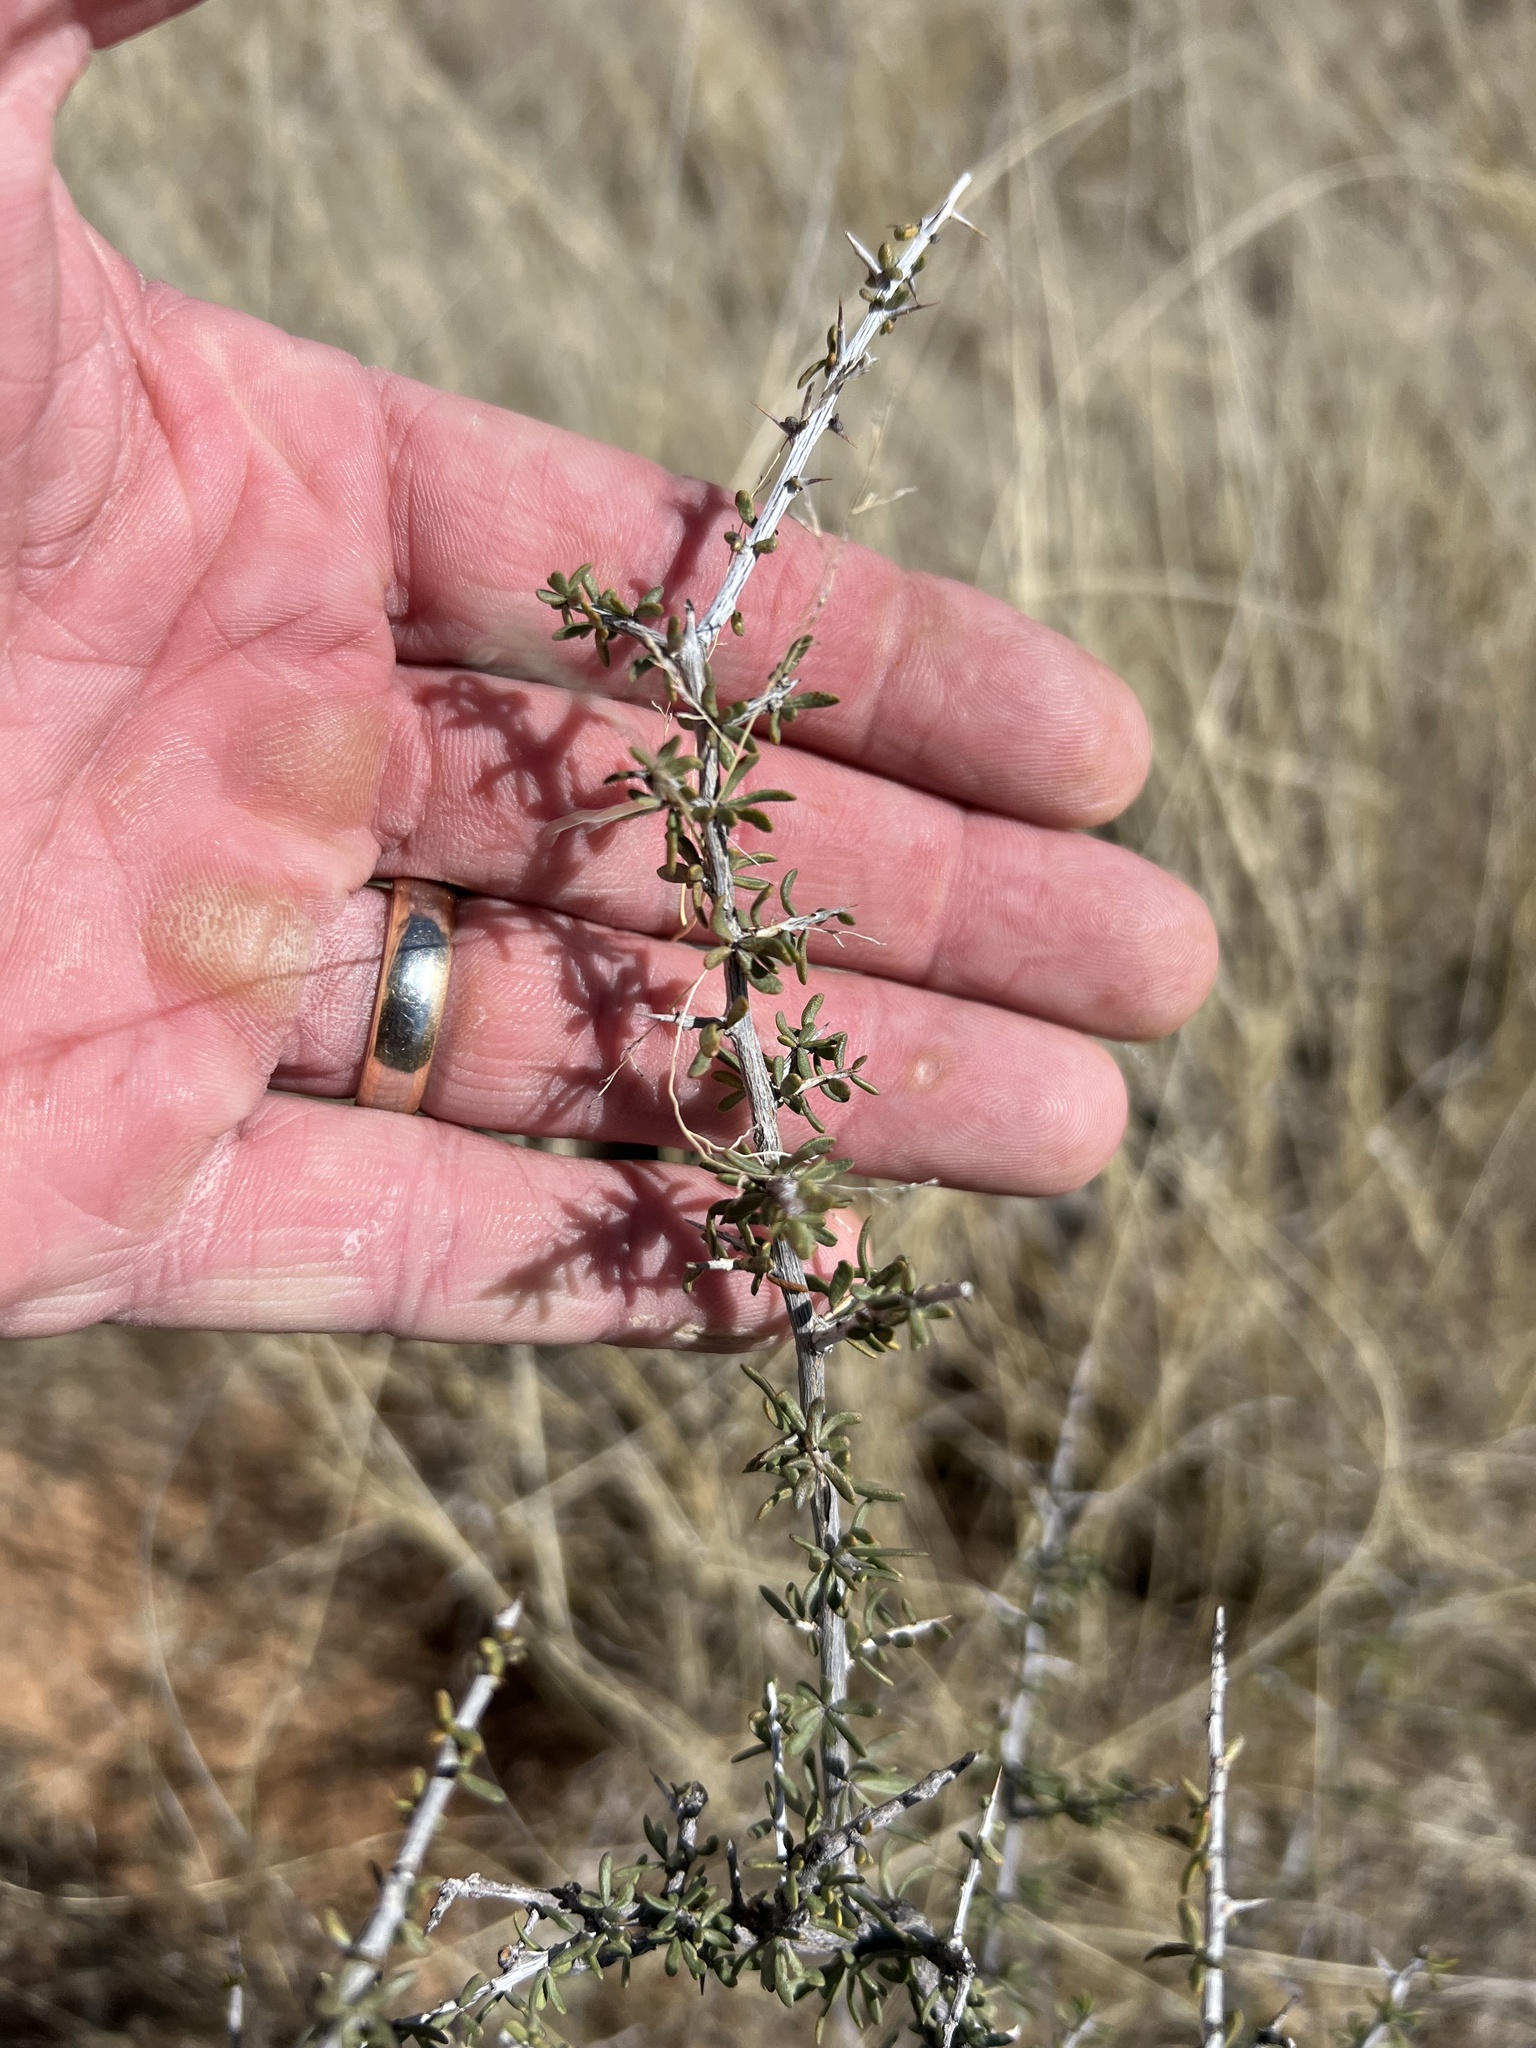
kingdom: Plantae
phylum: Tracheophyta
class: Magnoliopsida
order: Rosales
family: Rhamnaceae
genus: Condalia
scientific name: Condalia warnockii
